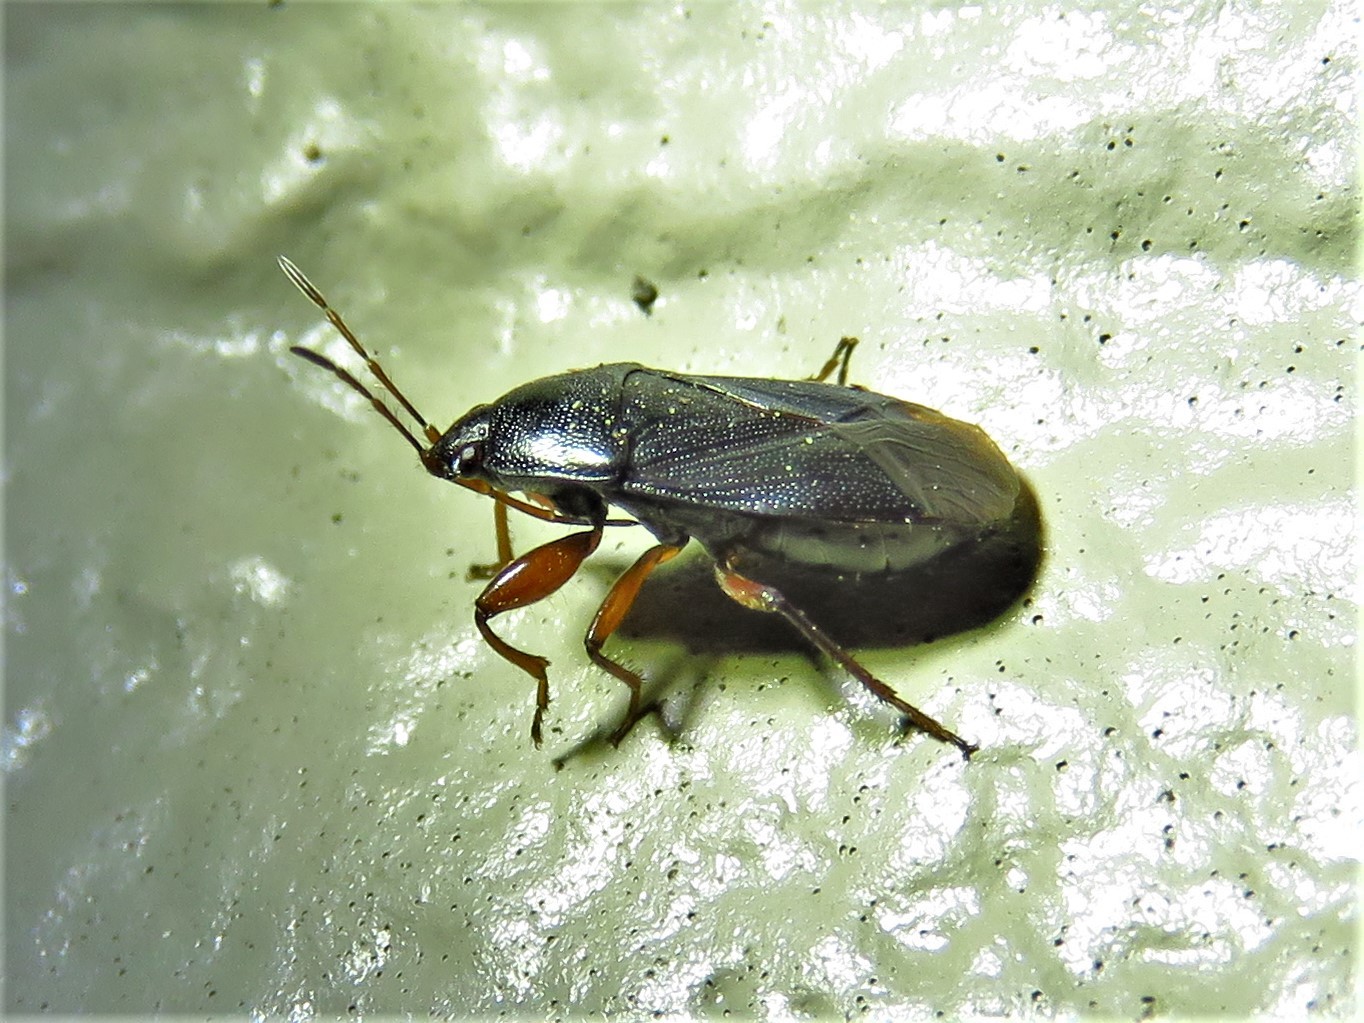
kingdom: Animalia
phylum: Arthropoda
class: Insecta
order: Hemiptera
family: Rhyparochromidae
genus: Delochilocoris
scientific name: Delochilocoris illuminatus
